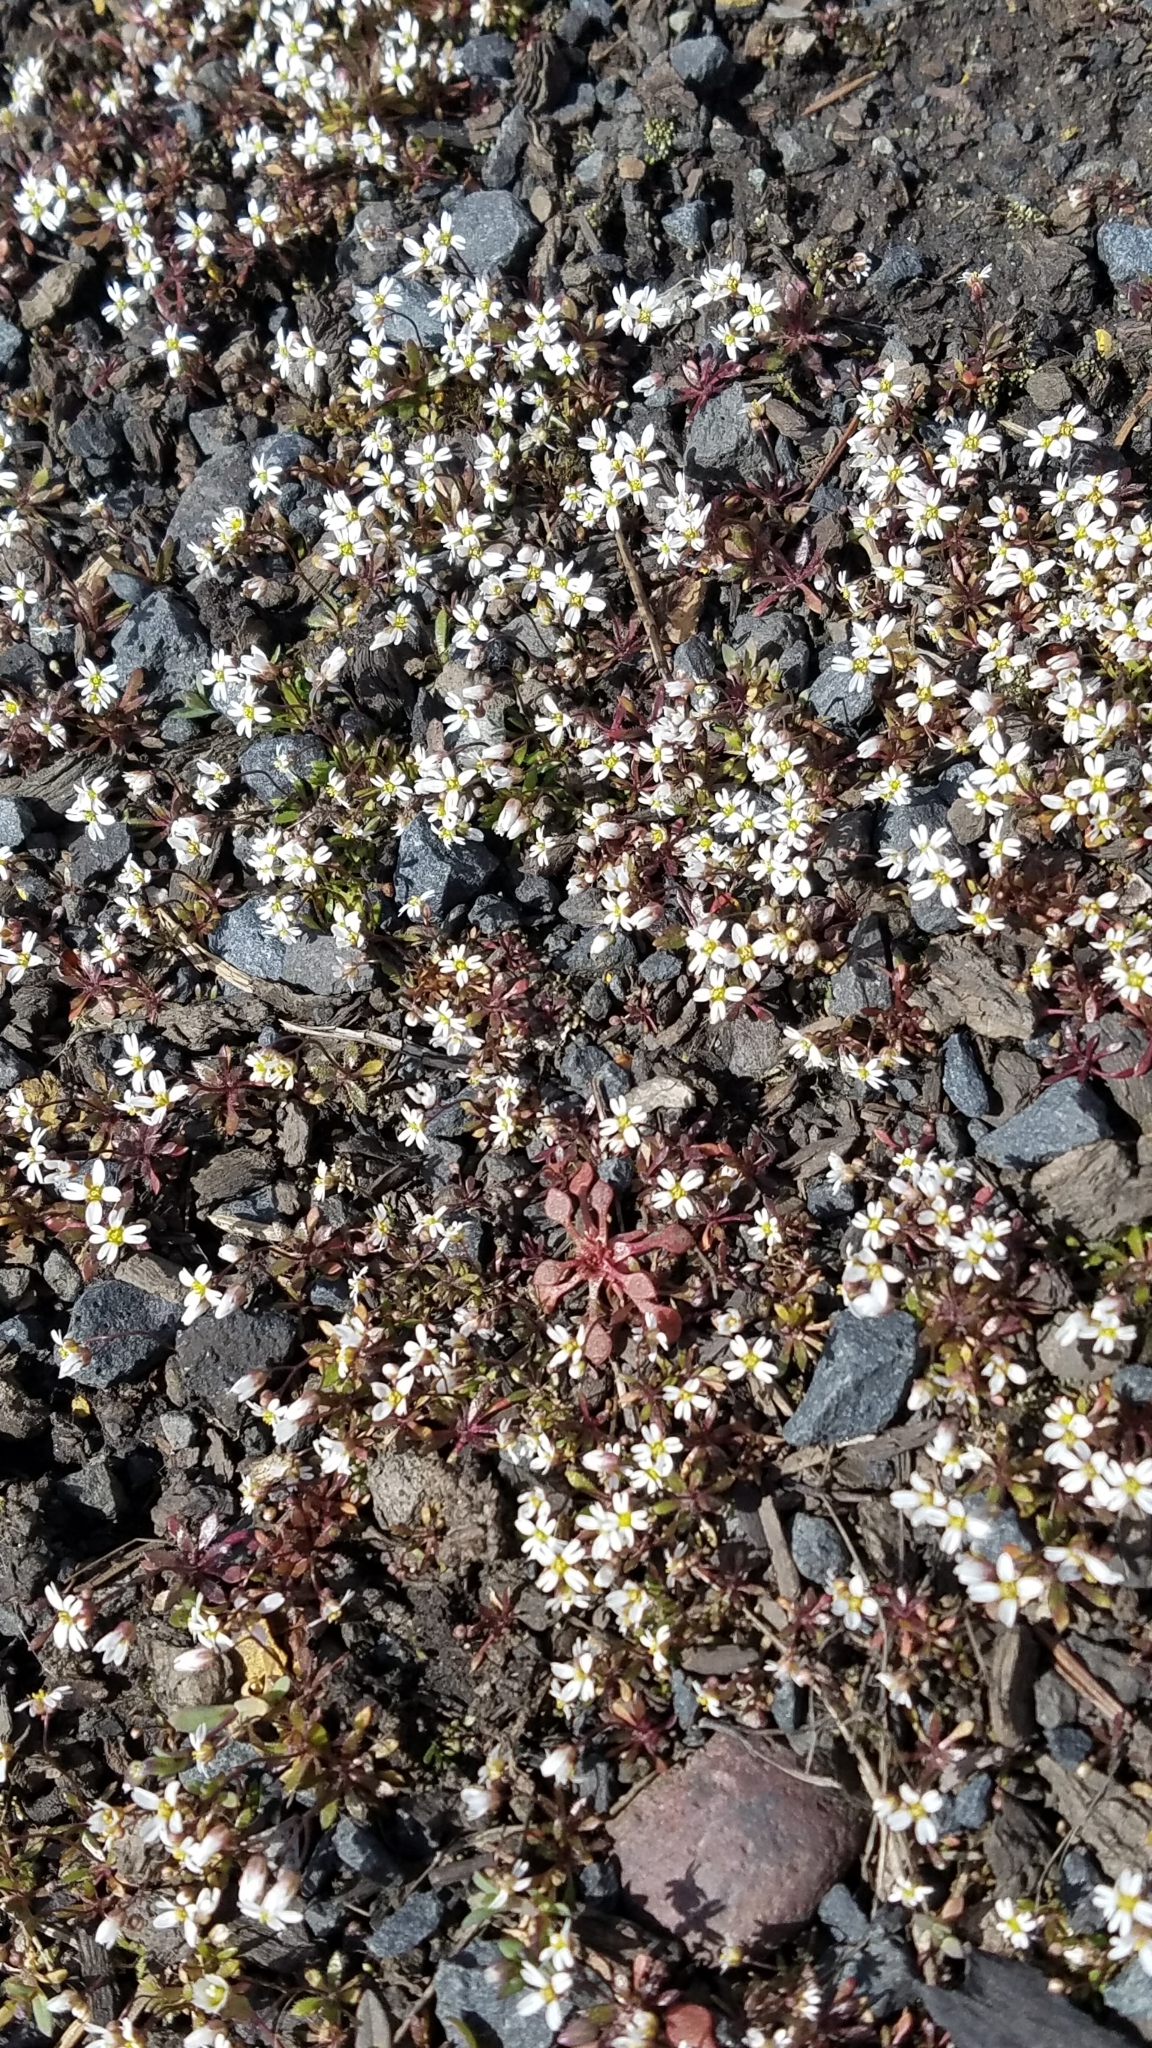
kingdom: Plantae
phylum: Tracheophyta
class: Magnoliopsida
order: Brassicales
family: Brassicaceae
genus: Draba
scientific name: Draba verna
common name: Spring draba
